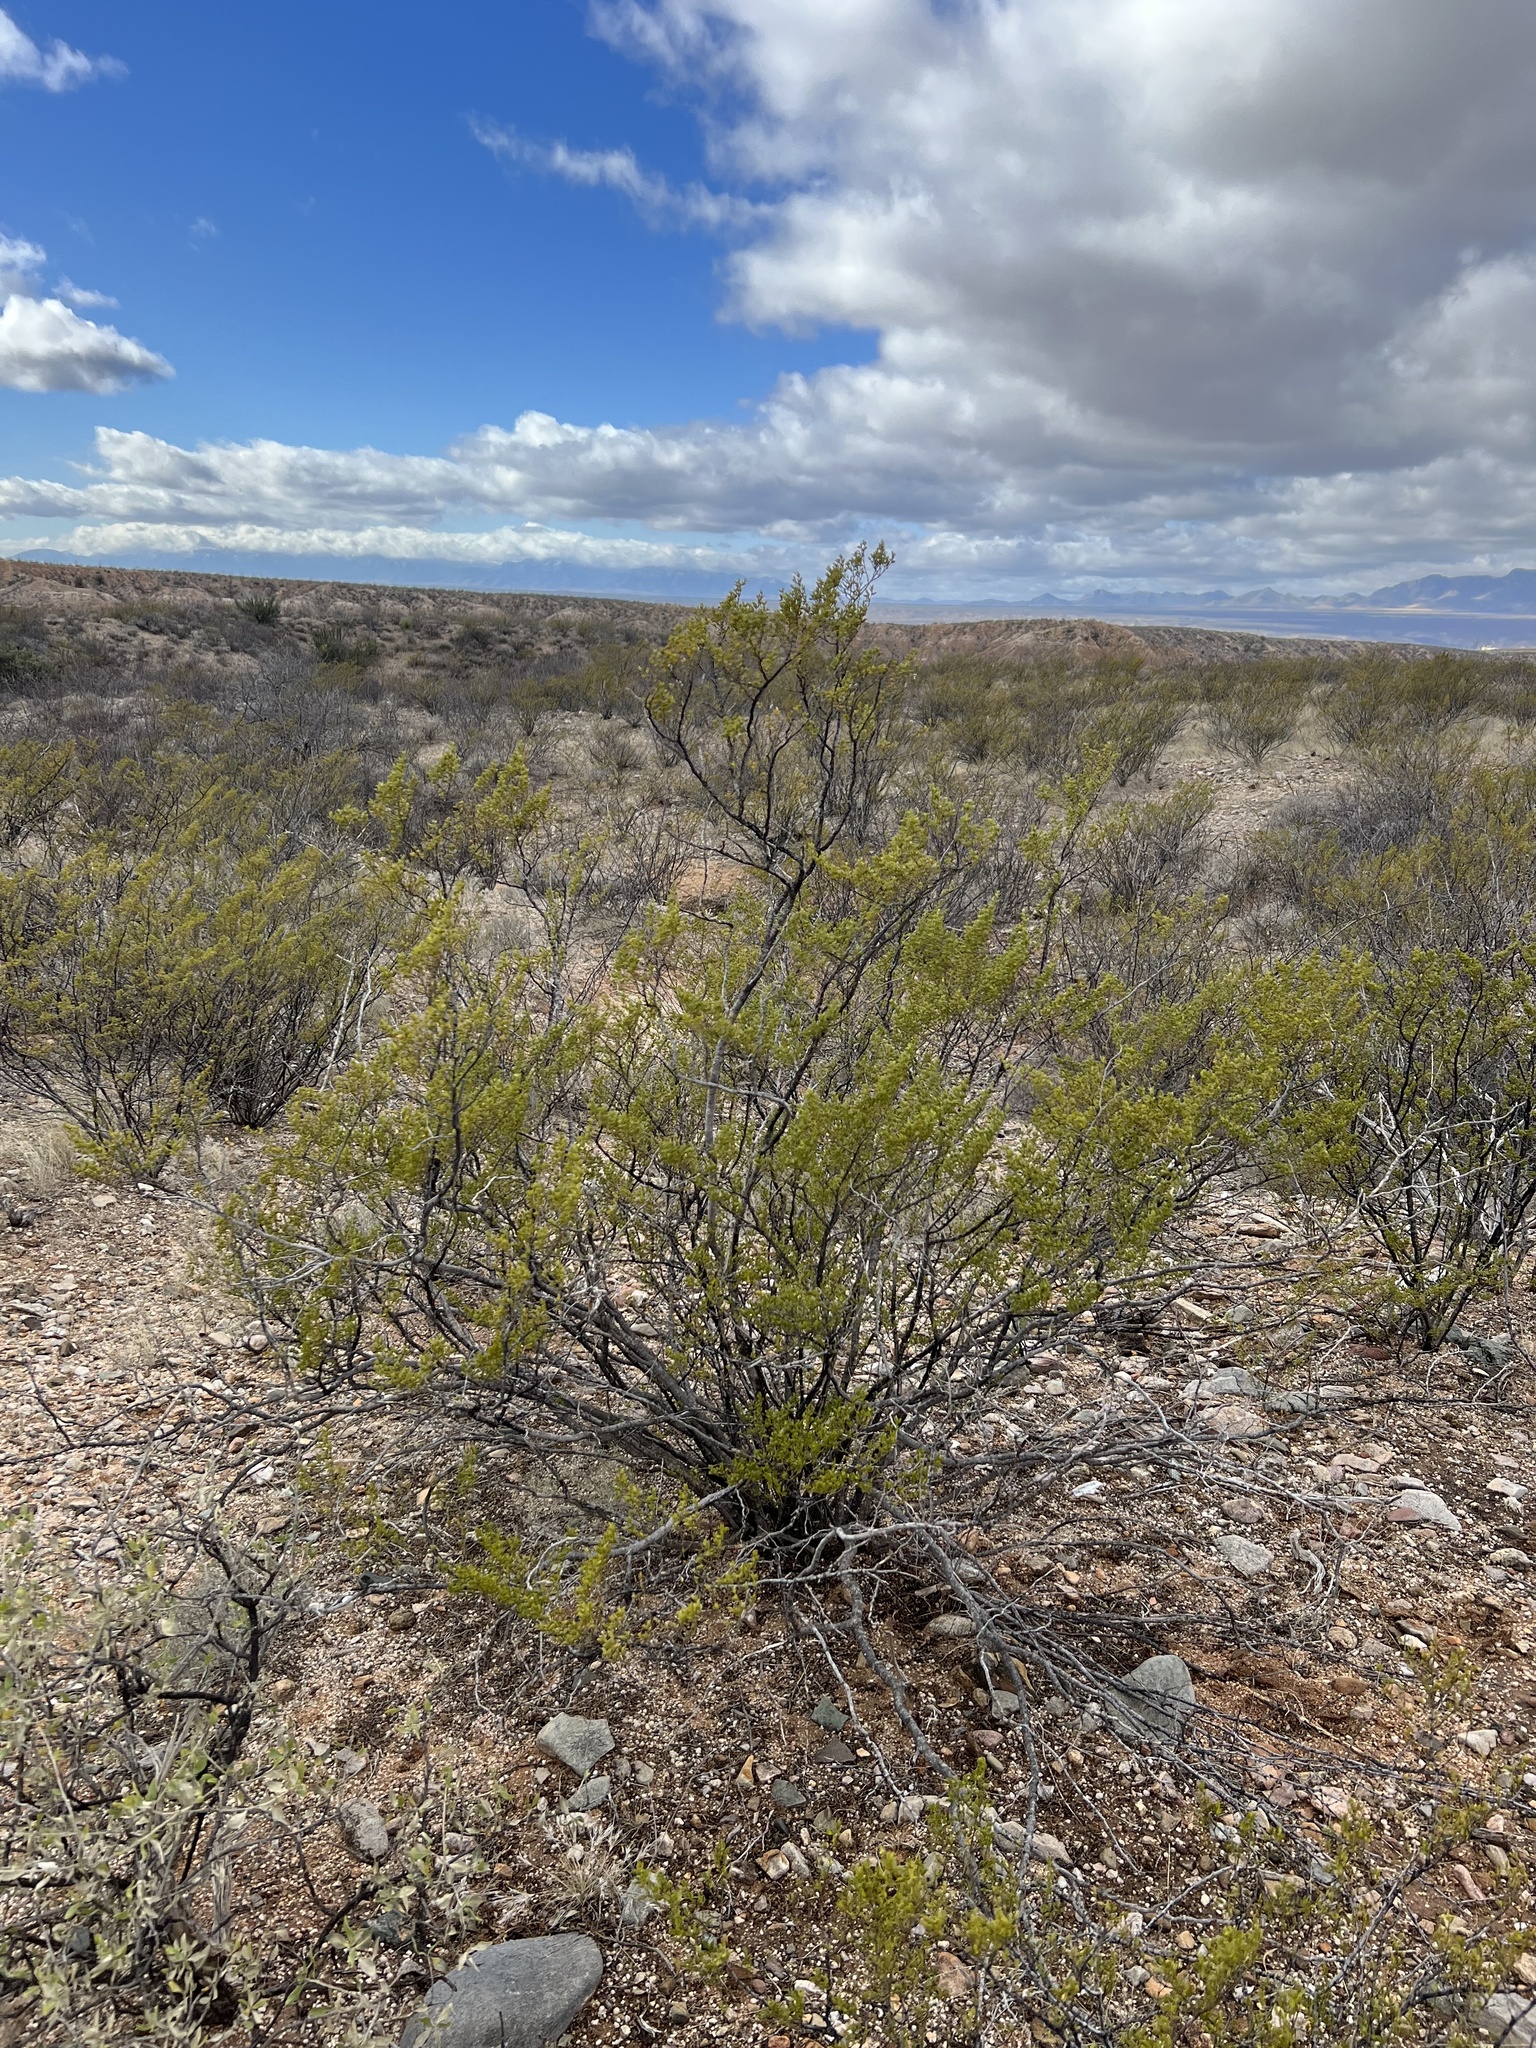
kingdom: Plantae
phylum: Tracheophyta
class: Magnoliopsida
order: Zygophyllales
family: Zygophyllaceae
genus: Larrea
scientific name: Larrea tridentata
